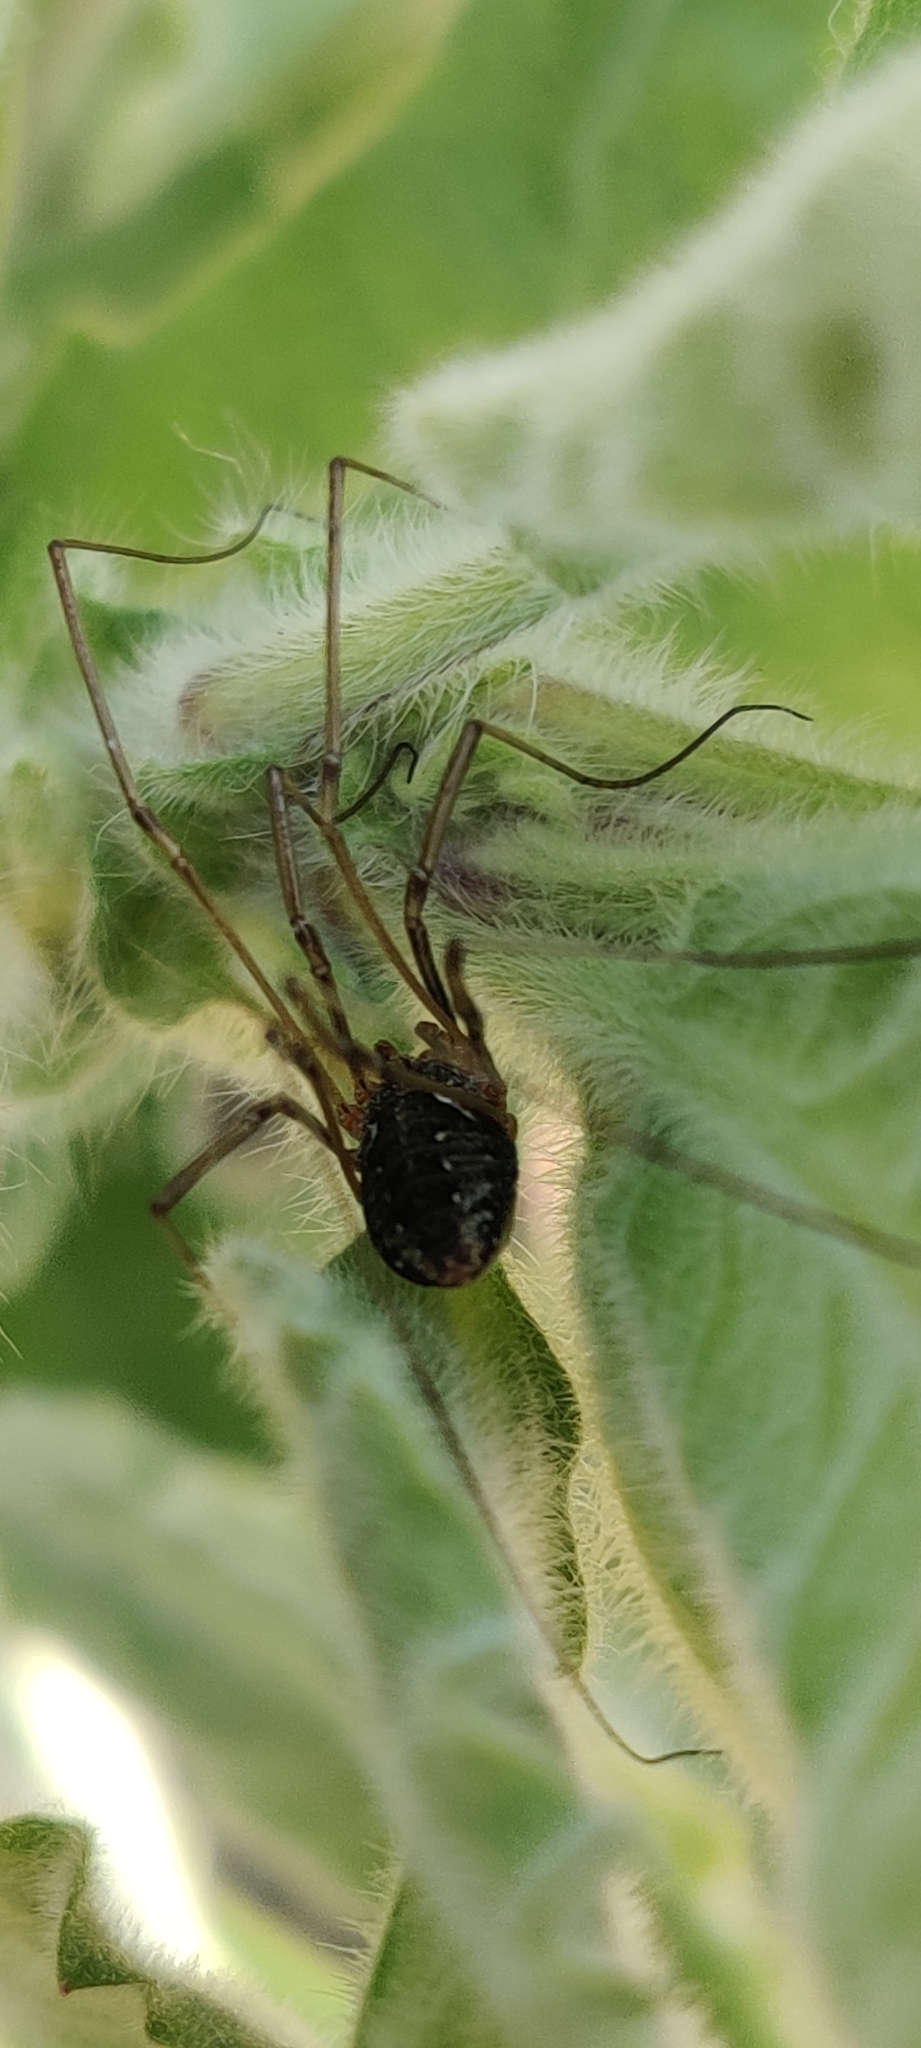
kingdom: Animalia
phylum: Arthropoda
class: Arachnida
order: Opiliones
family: Phalangiidae
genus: Phalangium
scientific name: Phalangium opilio
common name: Daddy longleg
